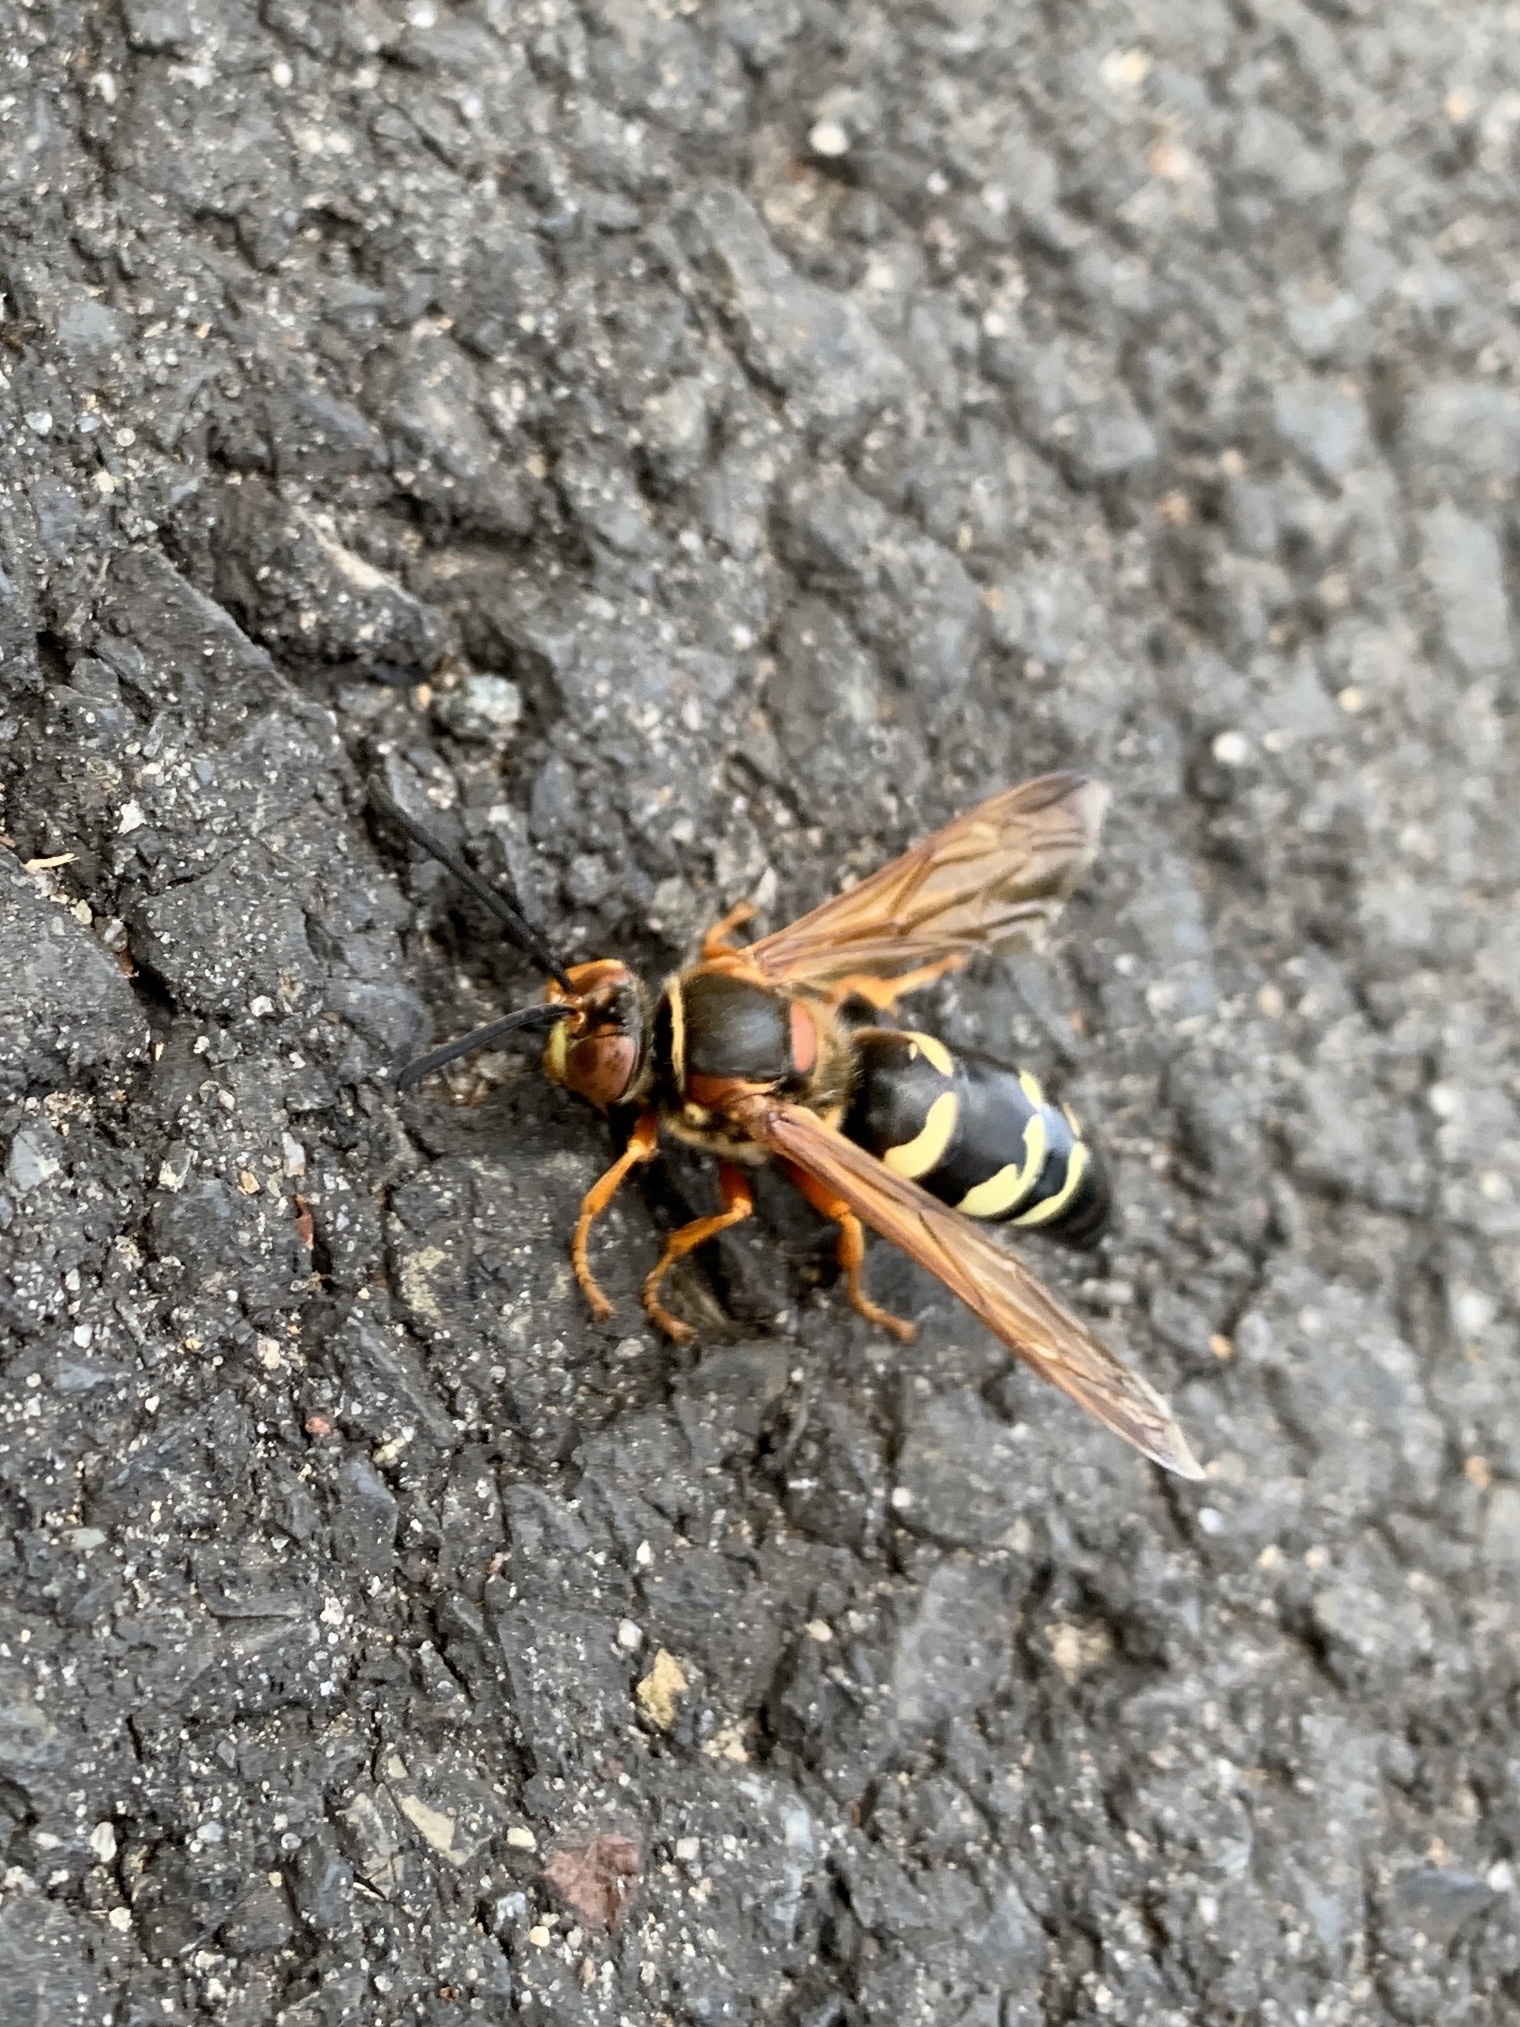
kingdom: Animalia
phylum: Arthropoda
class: Insecta
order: Hymenoptera
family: Crabronidae
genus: Sphecius
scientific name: Sphecius speciosus
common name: Cicada killer
